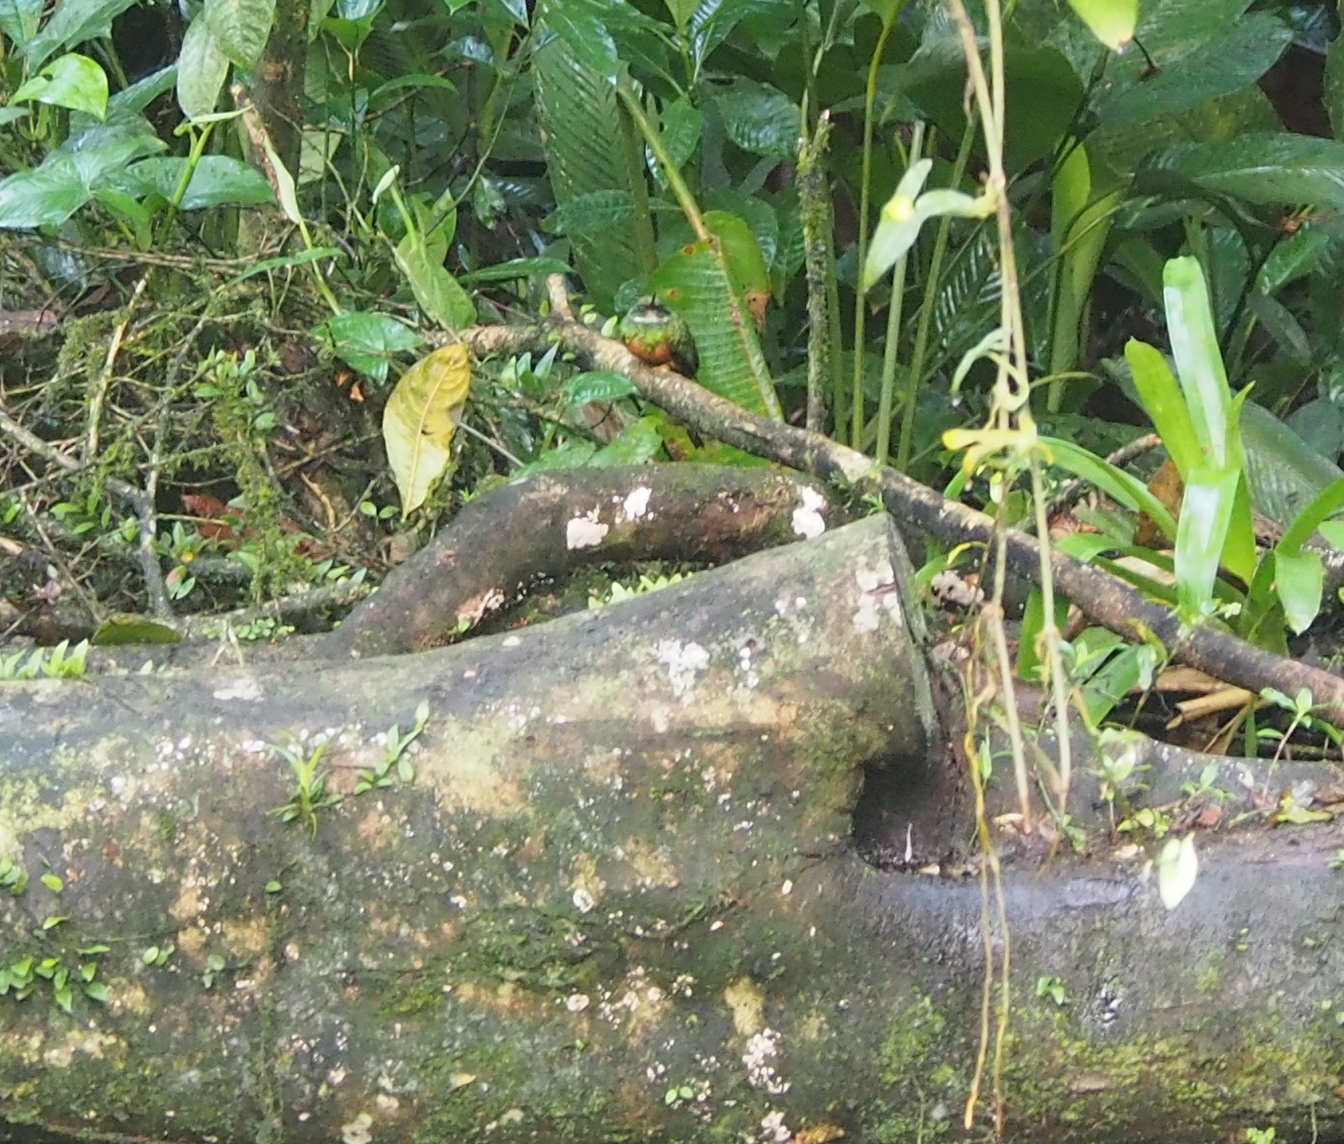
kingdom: Animalia
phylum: Chordata
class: Aves
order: Piciformes
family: Galbulidae
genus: Galbula
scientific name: Galbula ruficauda
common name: Rufous-tailed jacamar
